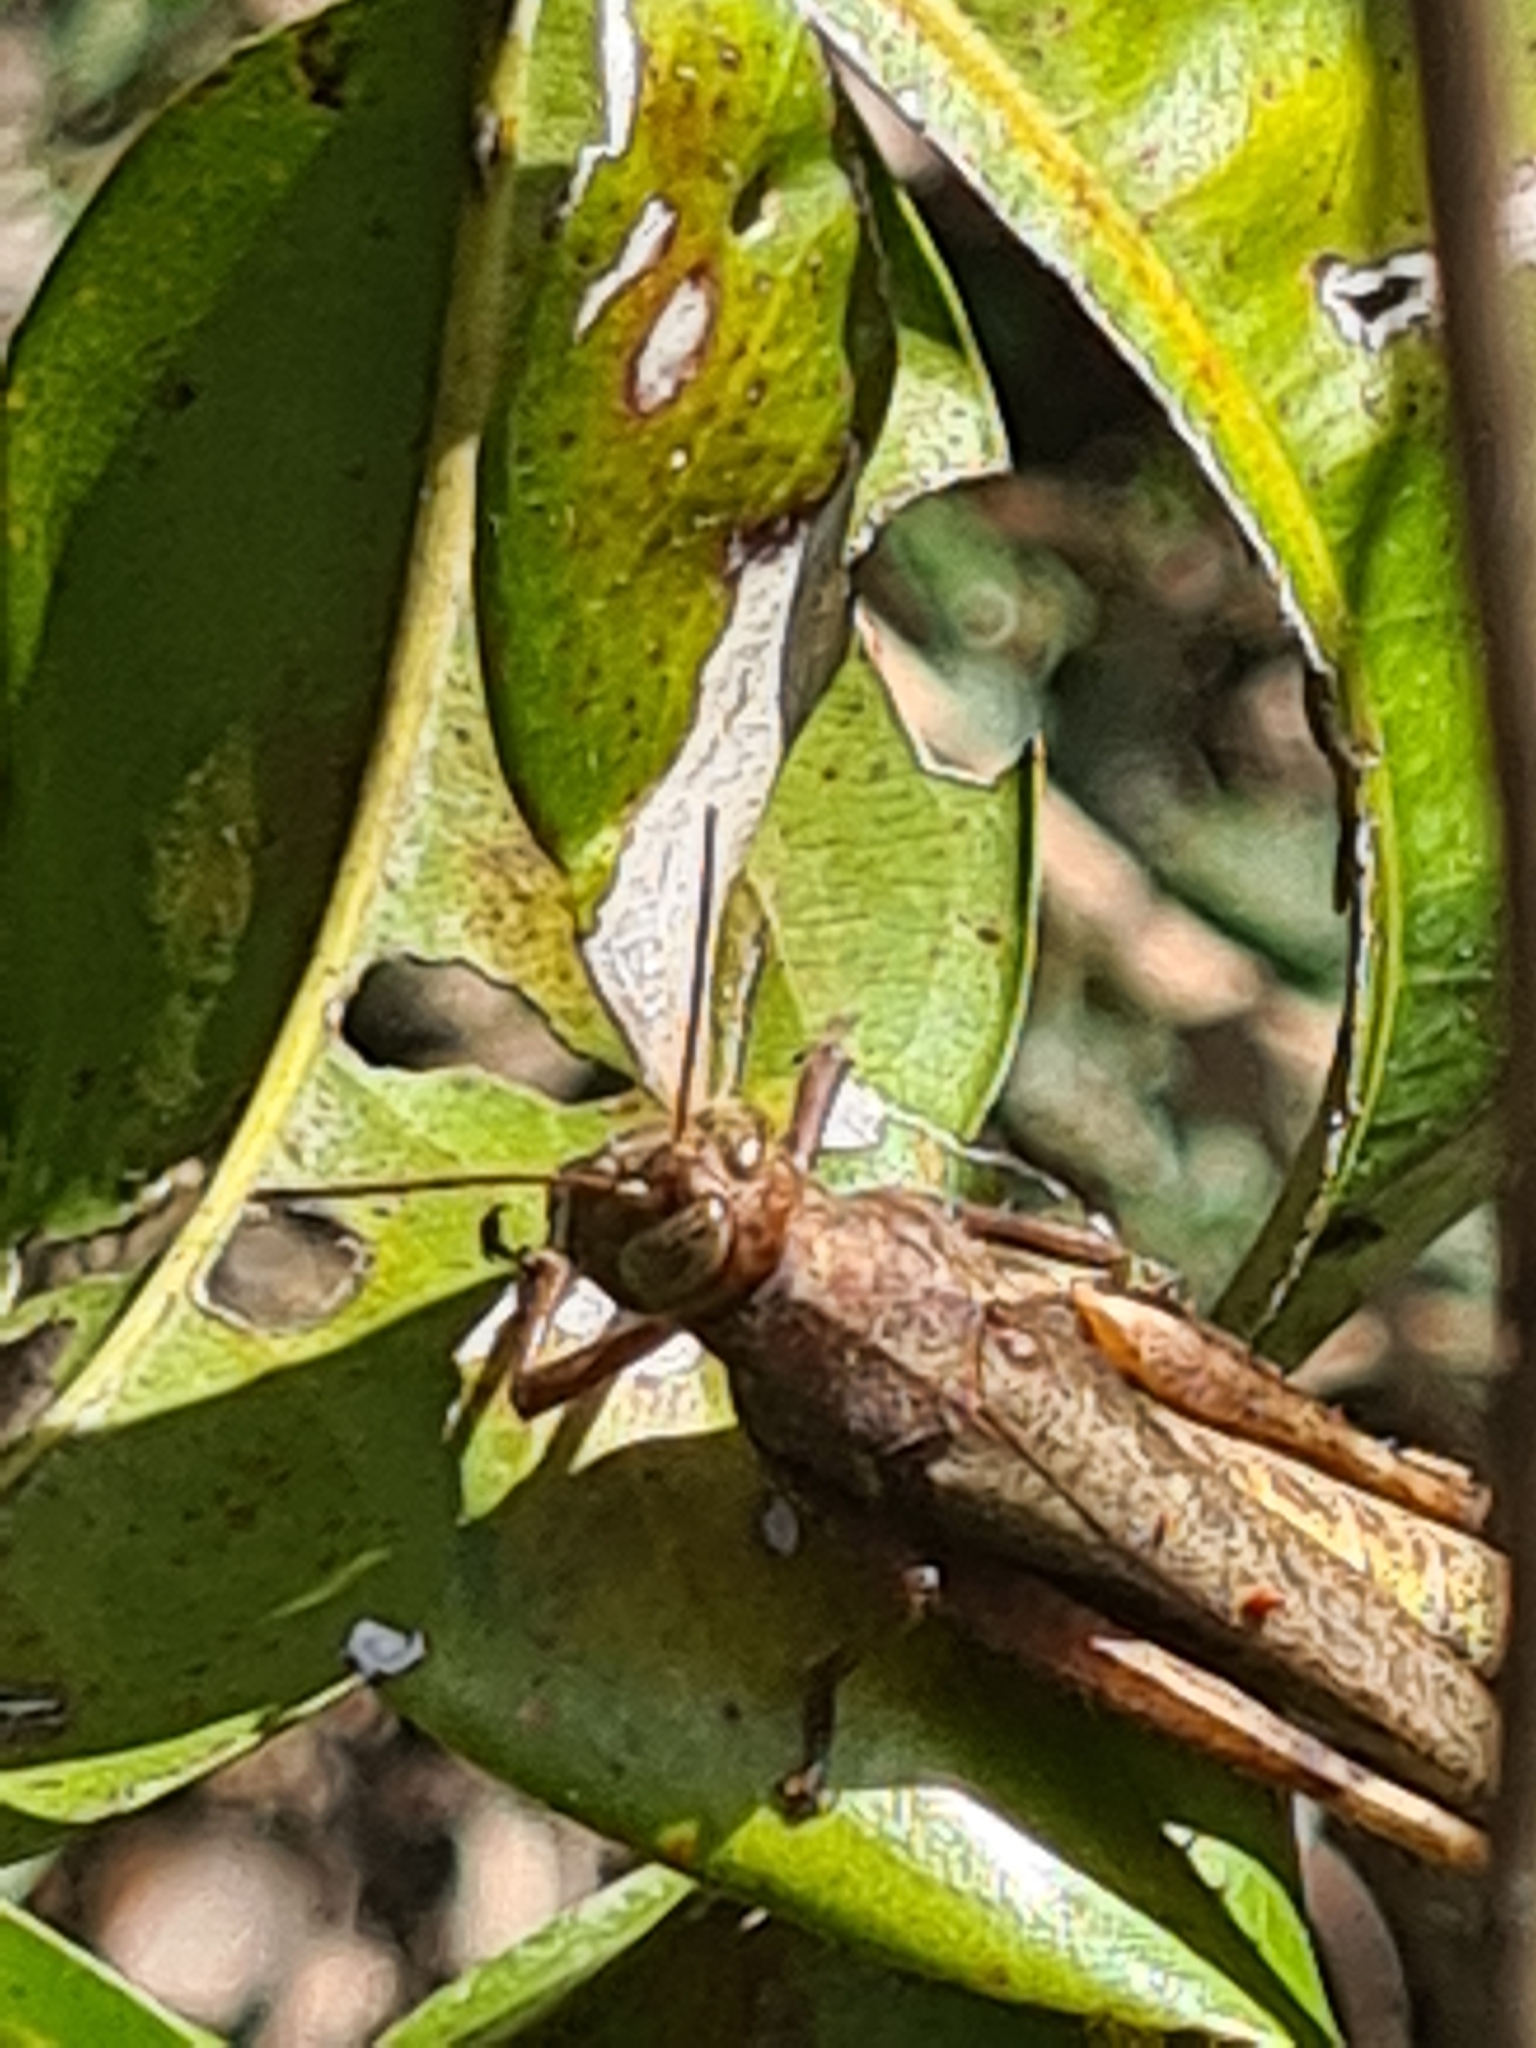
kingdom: Animalia
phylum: Arthropoda
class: Insecta
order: Orthoptera
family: Acrididae
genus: Abracris
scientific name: Abracris flavolineata
